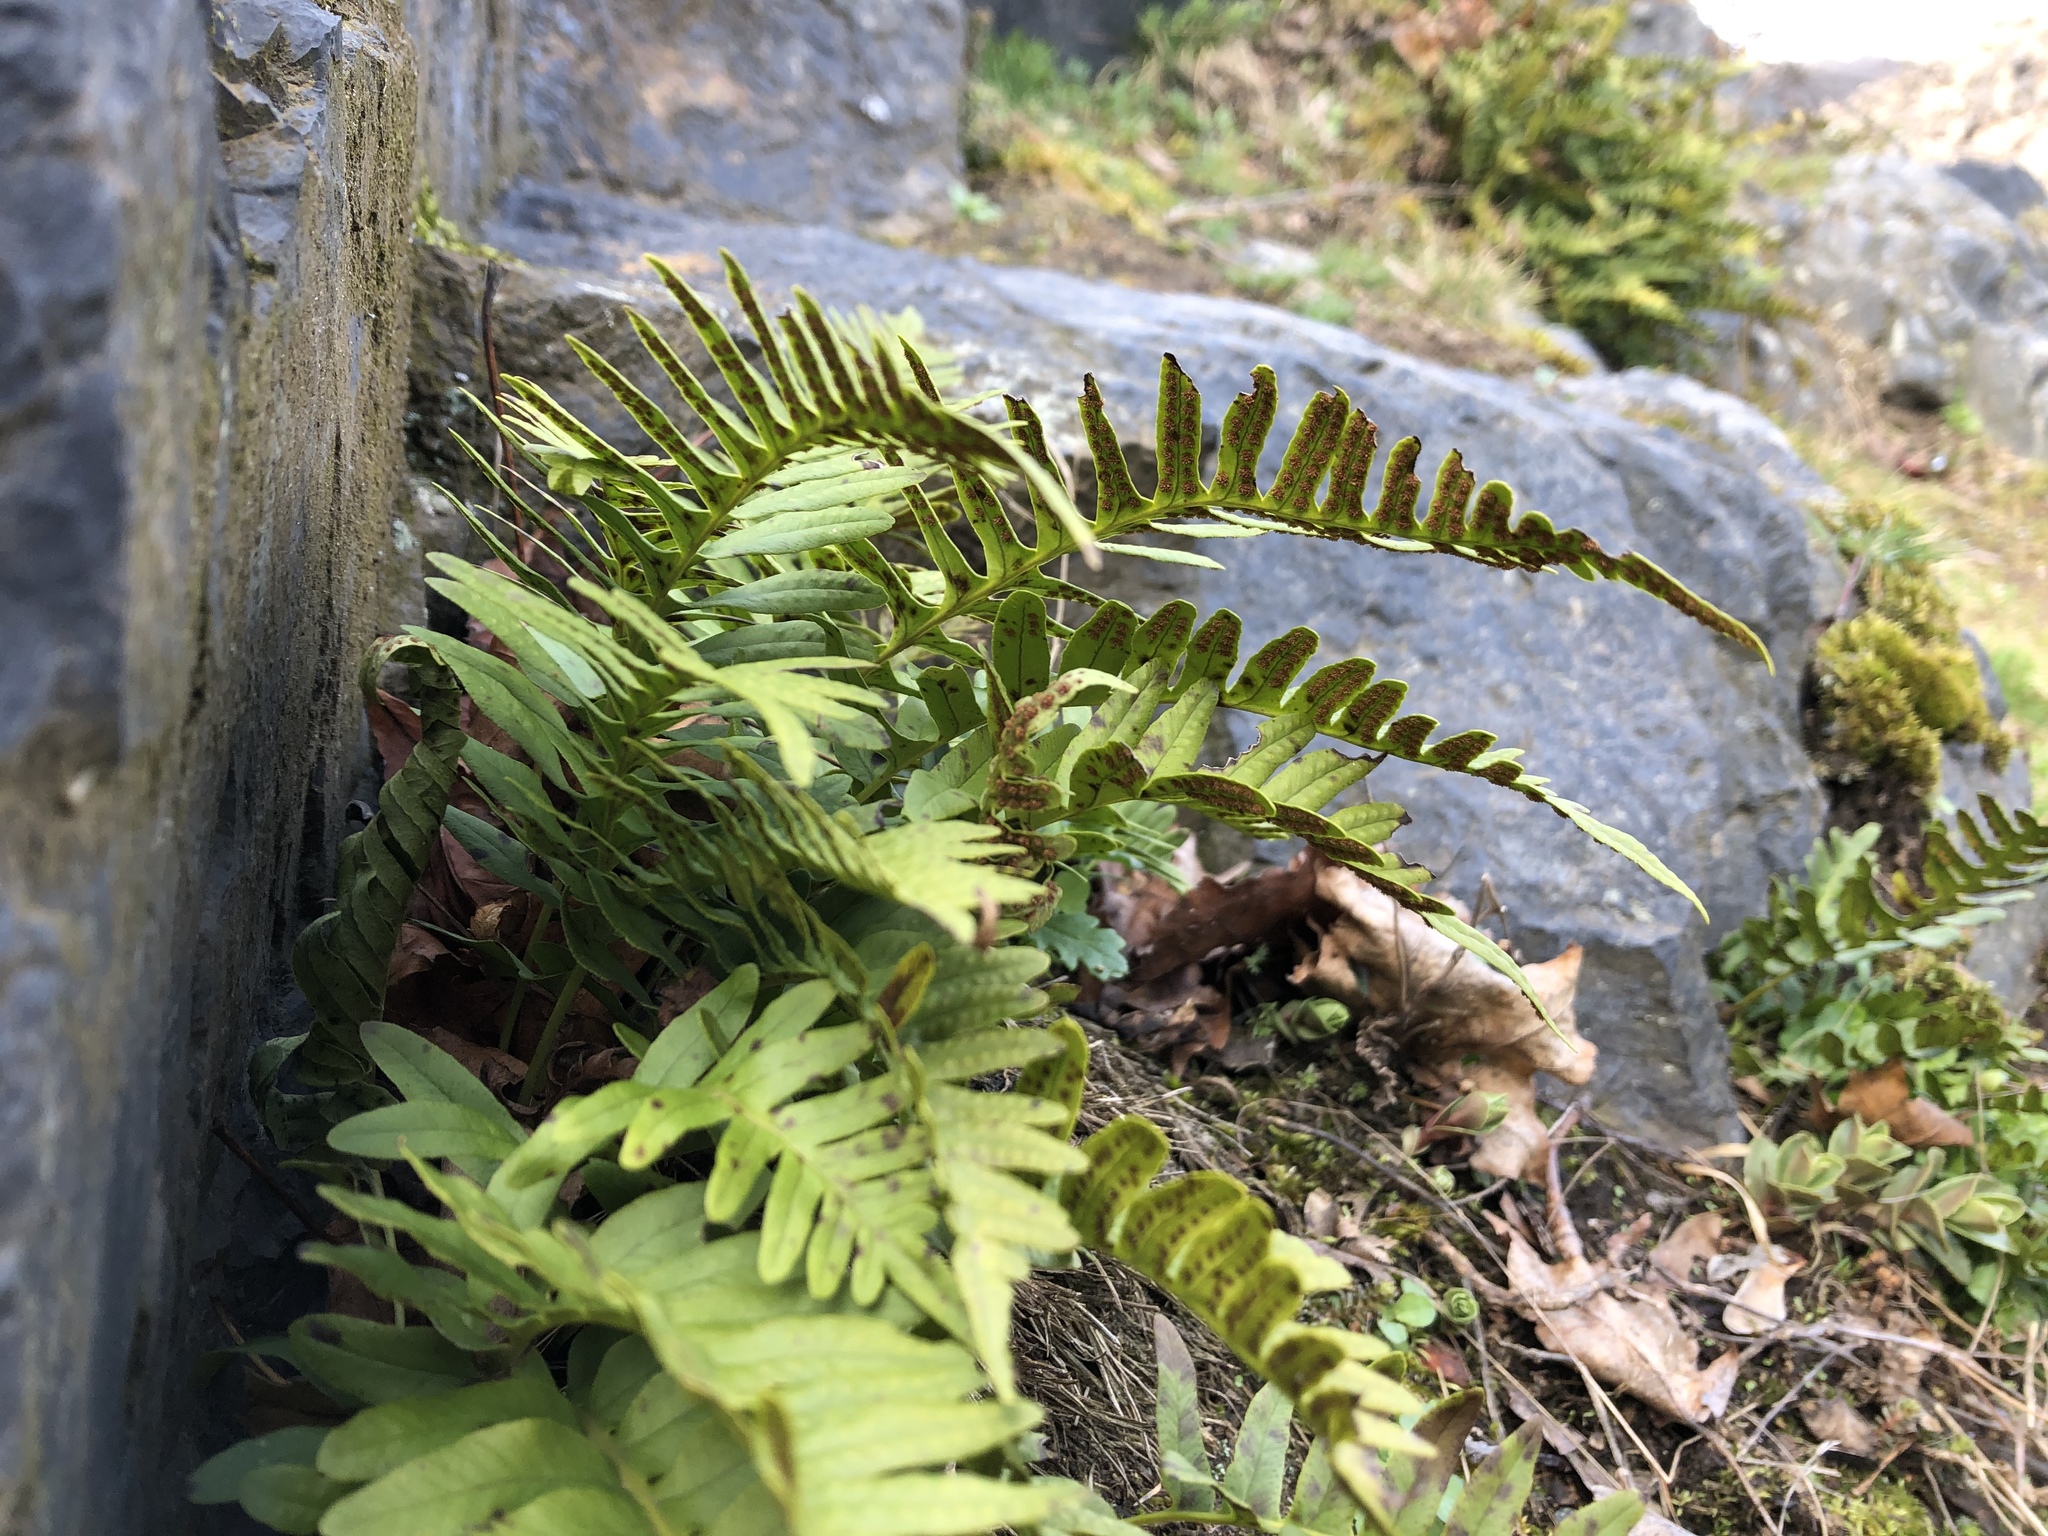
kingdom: Plantae
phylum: Tracheophyta
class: Polypodiopsida
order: Polypodiales
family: Polypodiaceae
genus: Polypodium
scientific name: Polypodium vulgare
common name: Common polypody
